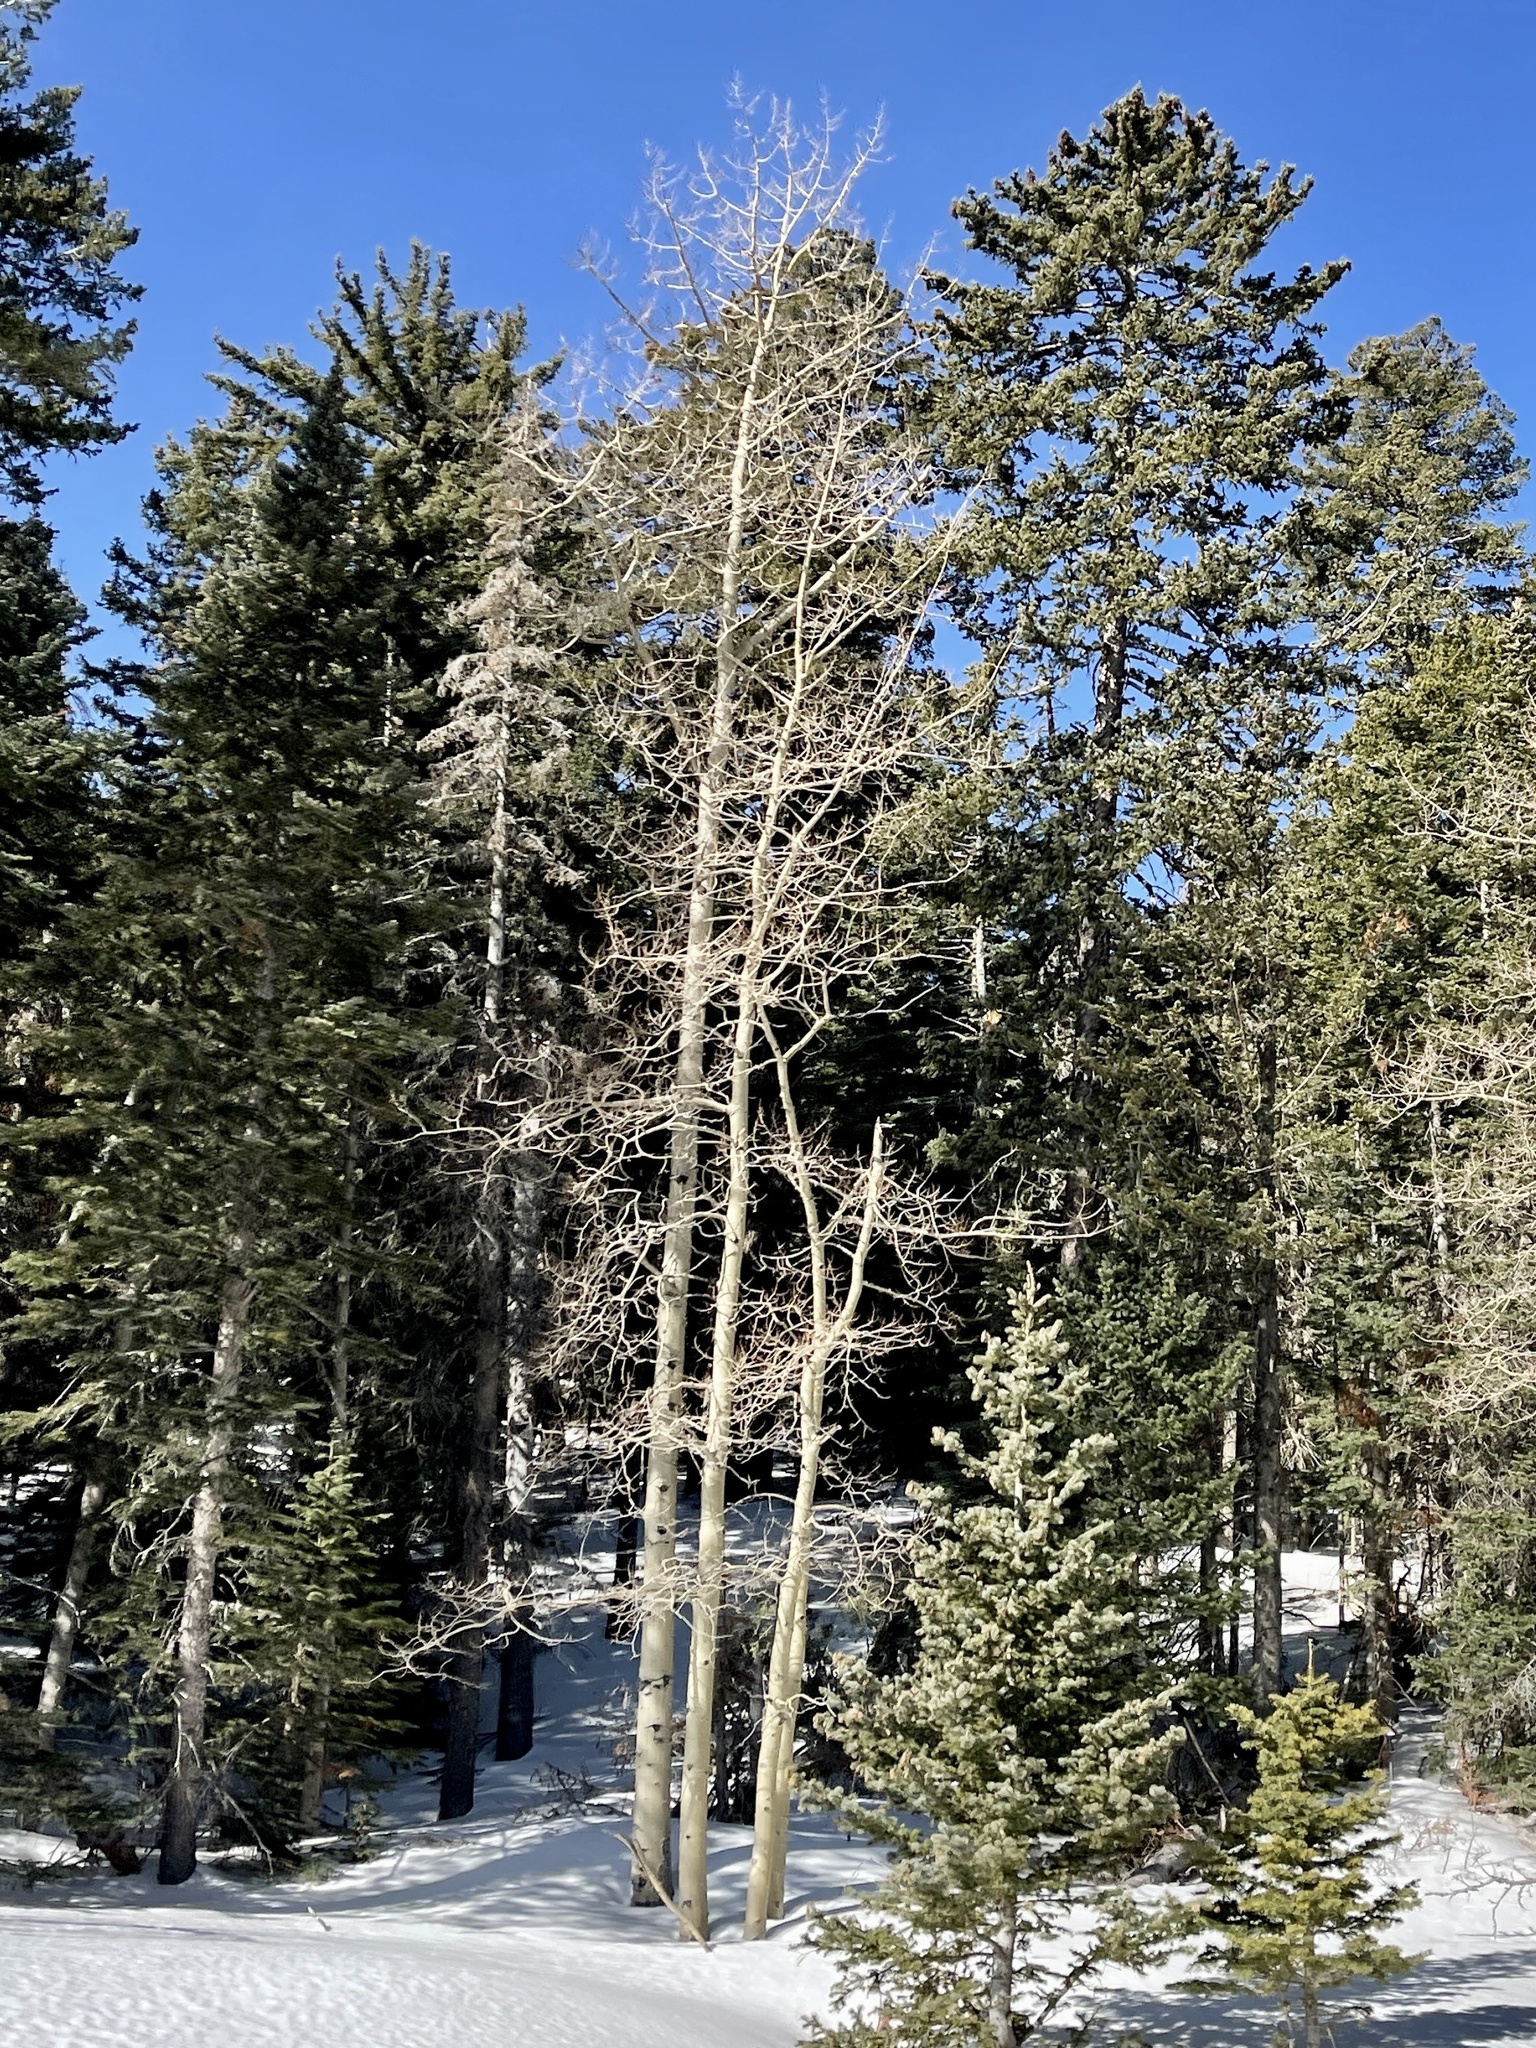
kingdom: Plantae
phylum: Tracheophyta
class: Magnoliopsida
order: Malpighiales
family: Salicaceae
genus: Populus
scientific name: Populus tremuloides
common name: Quaking aspen
